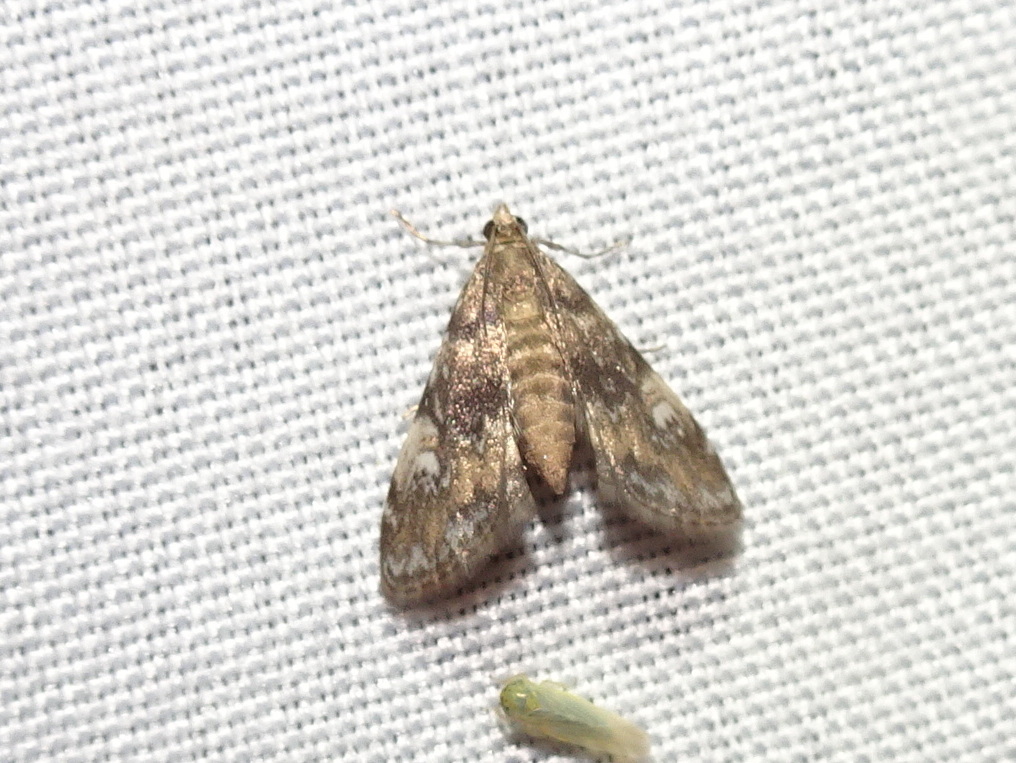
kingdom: Animalia
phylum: Arthropoda
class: Insecta
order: Lepidoptera
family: Crambidae
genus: Elophila
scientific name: Elophila obliteralis
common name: Waterlily leafcutter moth
